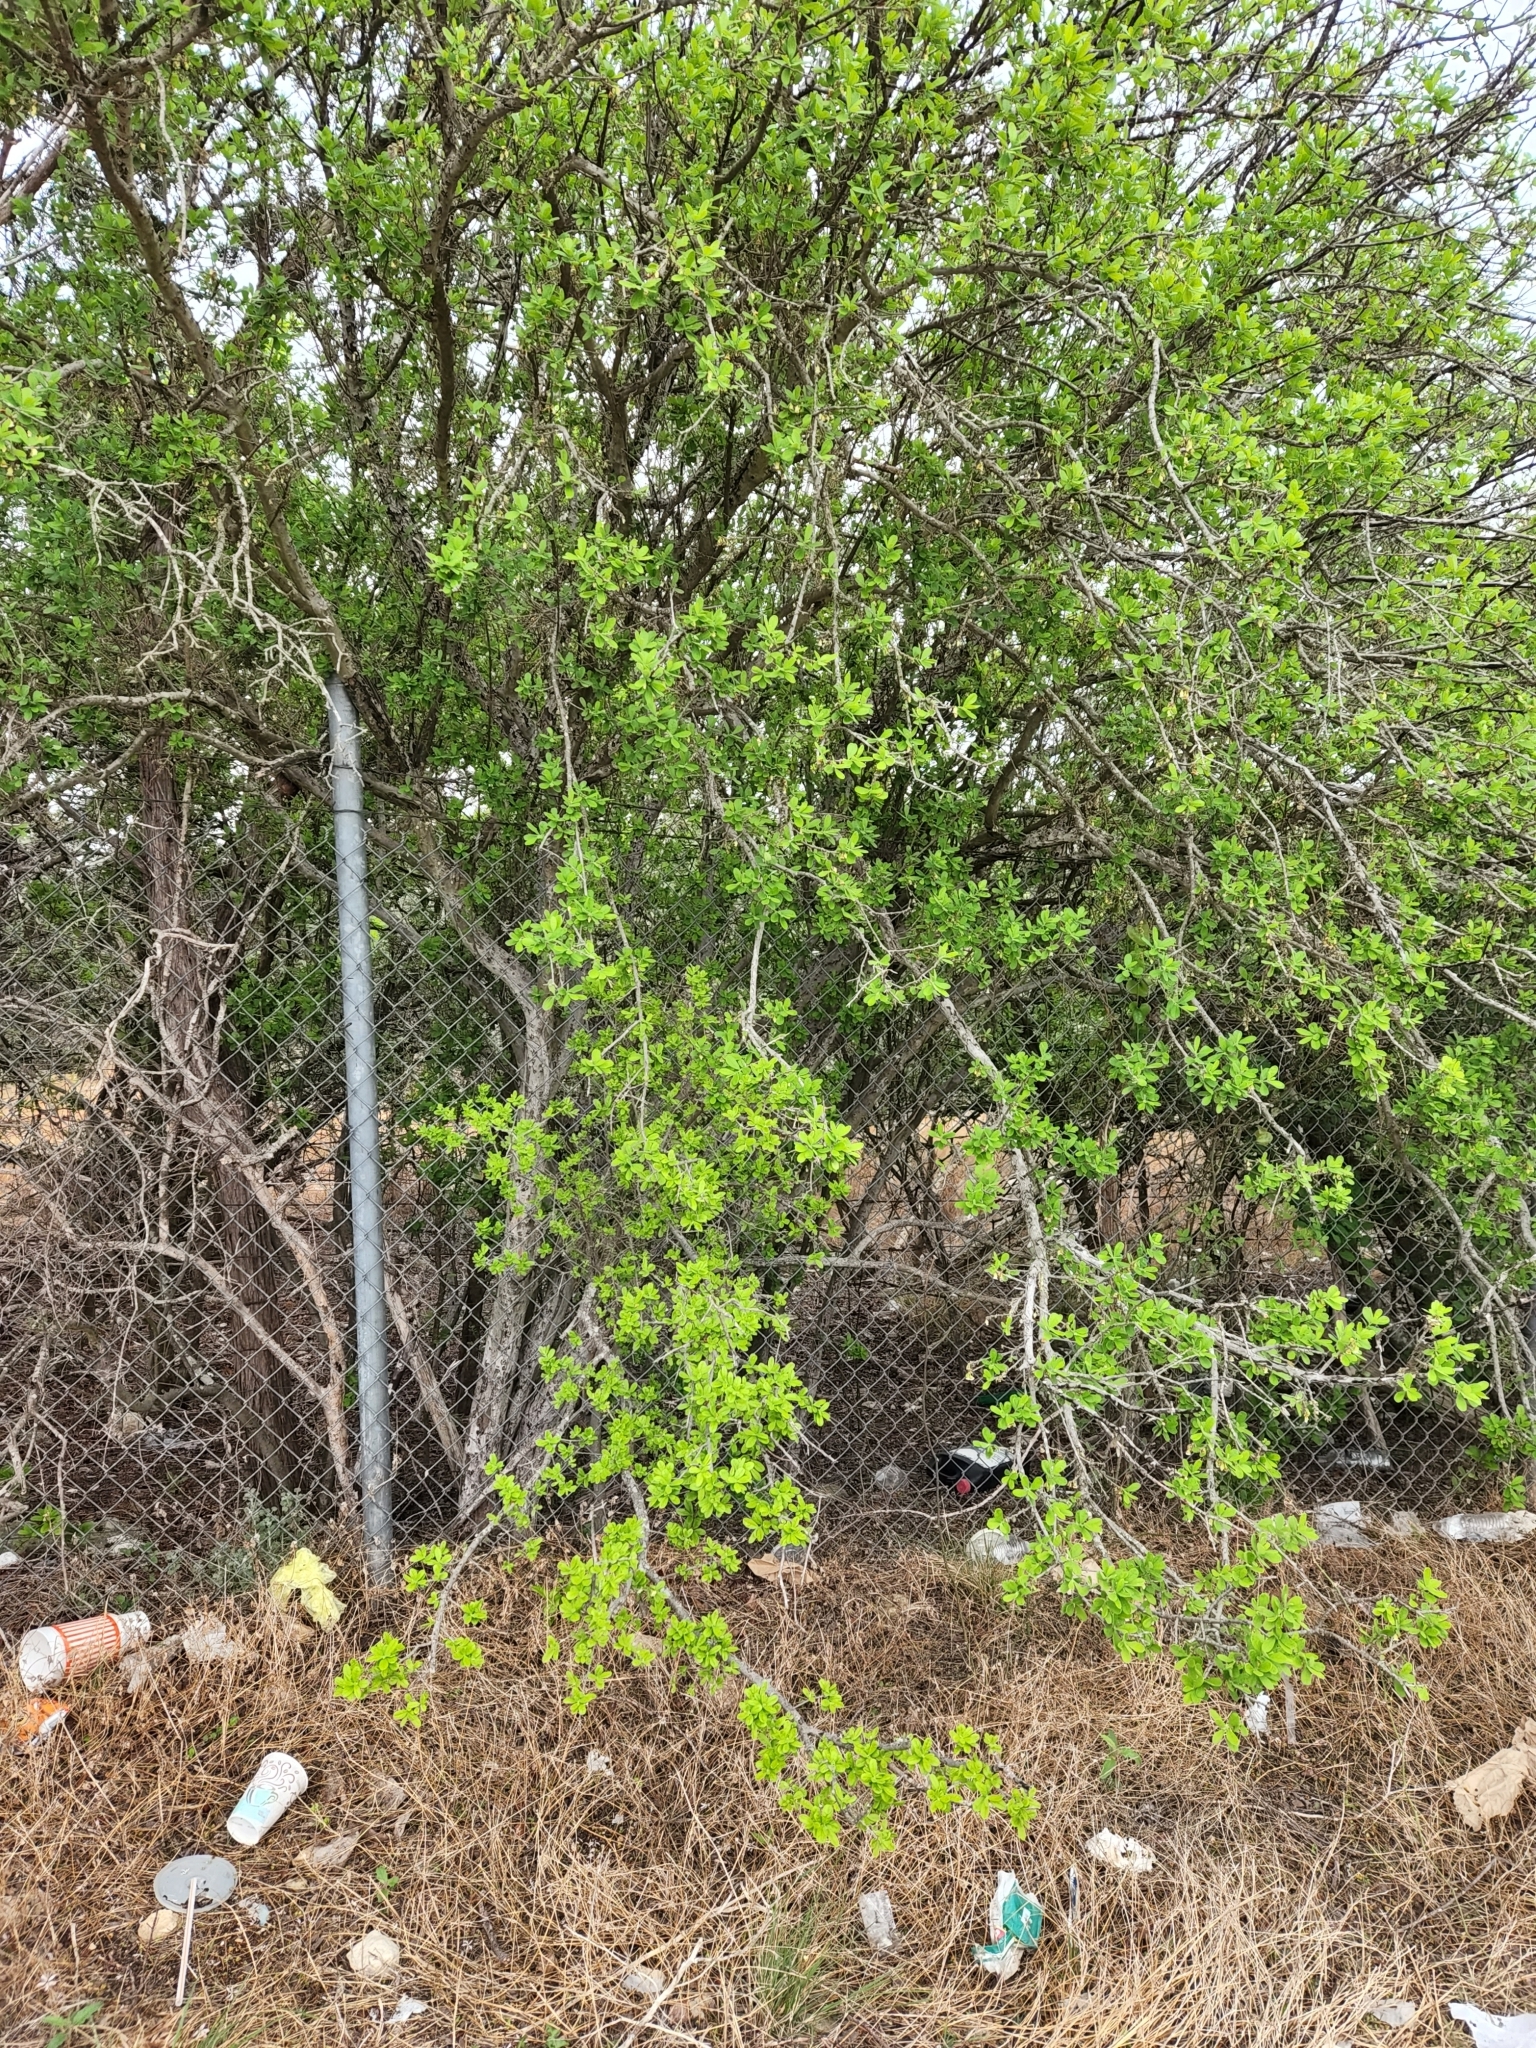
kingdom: Plantae
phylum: Tracheophyta
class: Magnoliopsida
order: Ericales
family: Ebenaceae
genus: Diospyros
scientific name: Diospyros texana
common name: Texas persimmon
